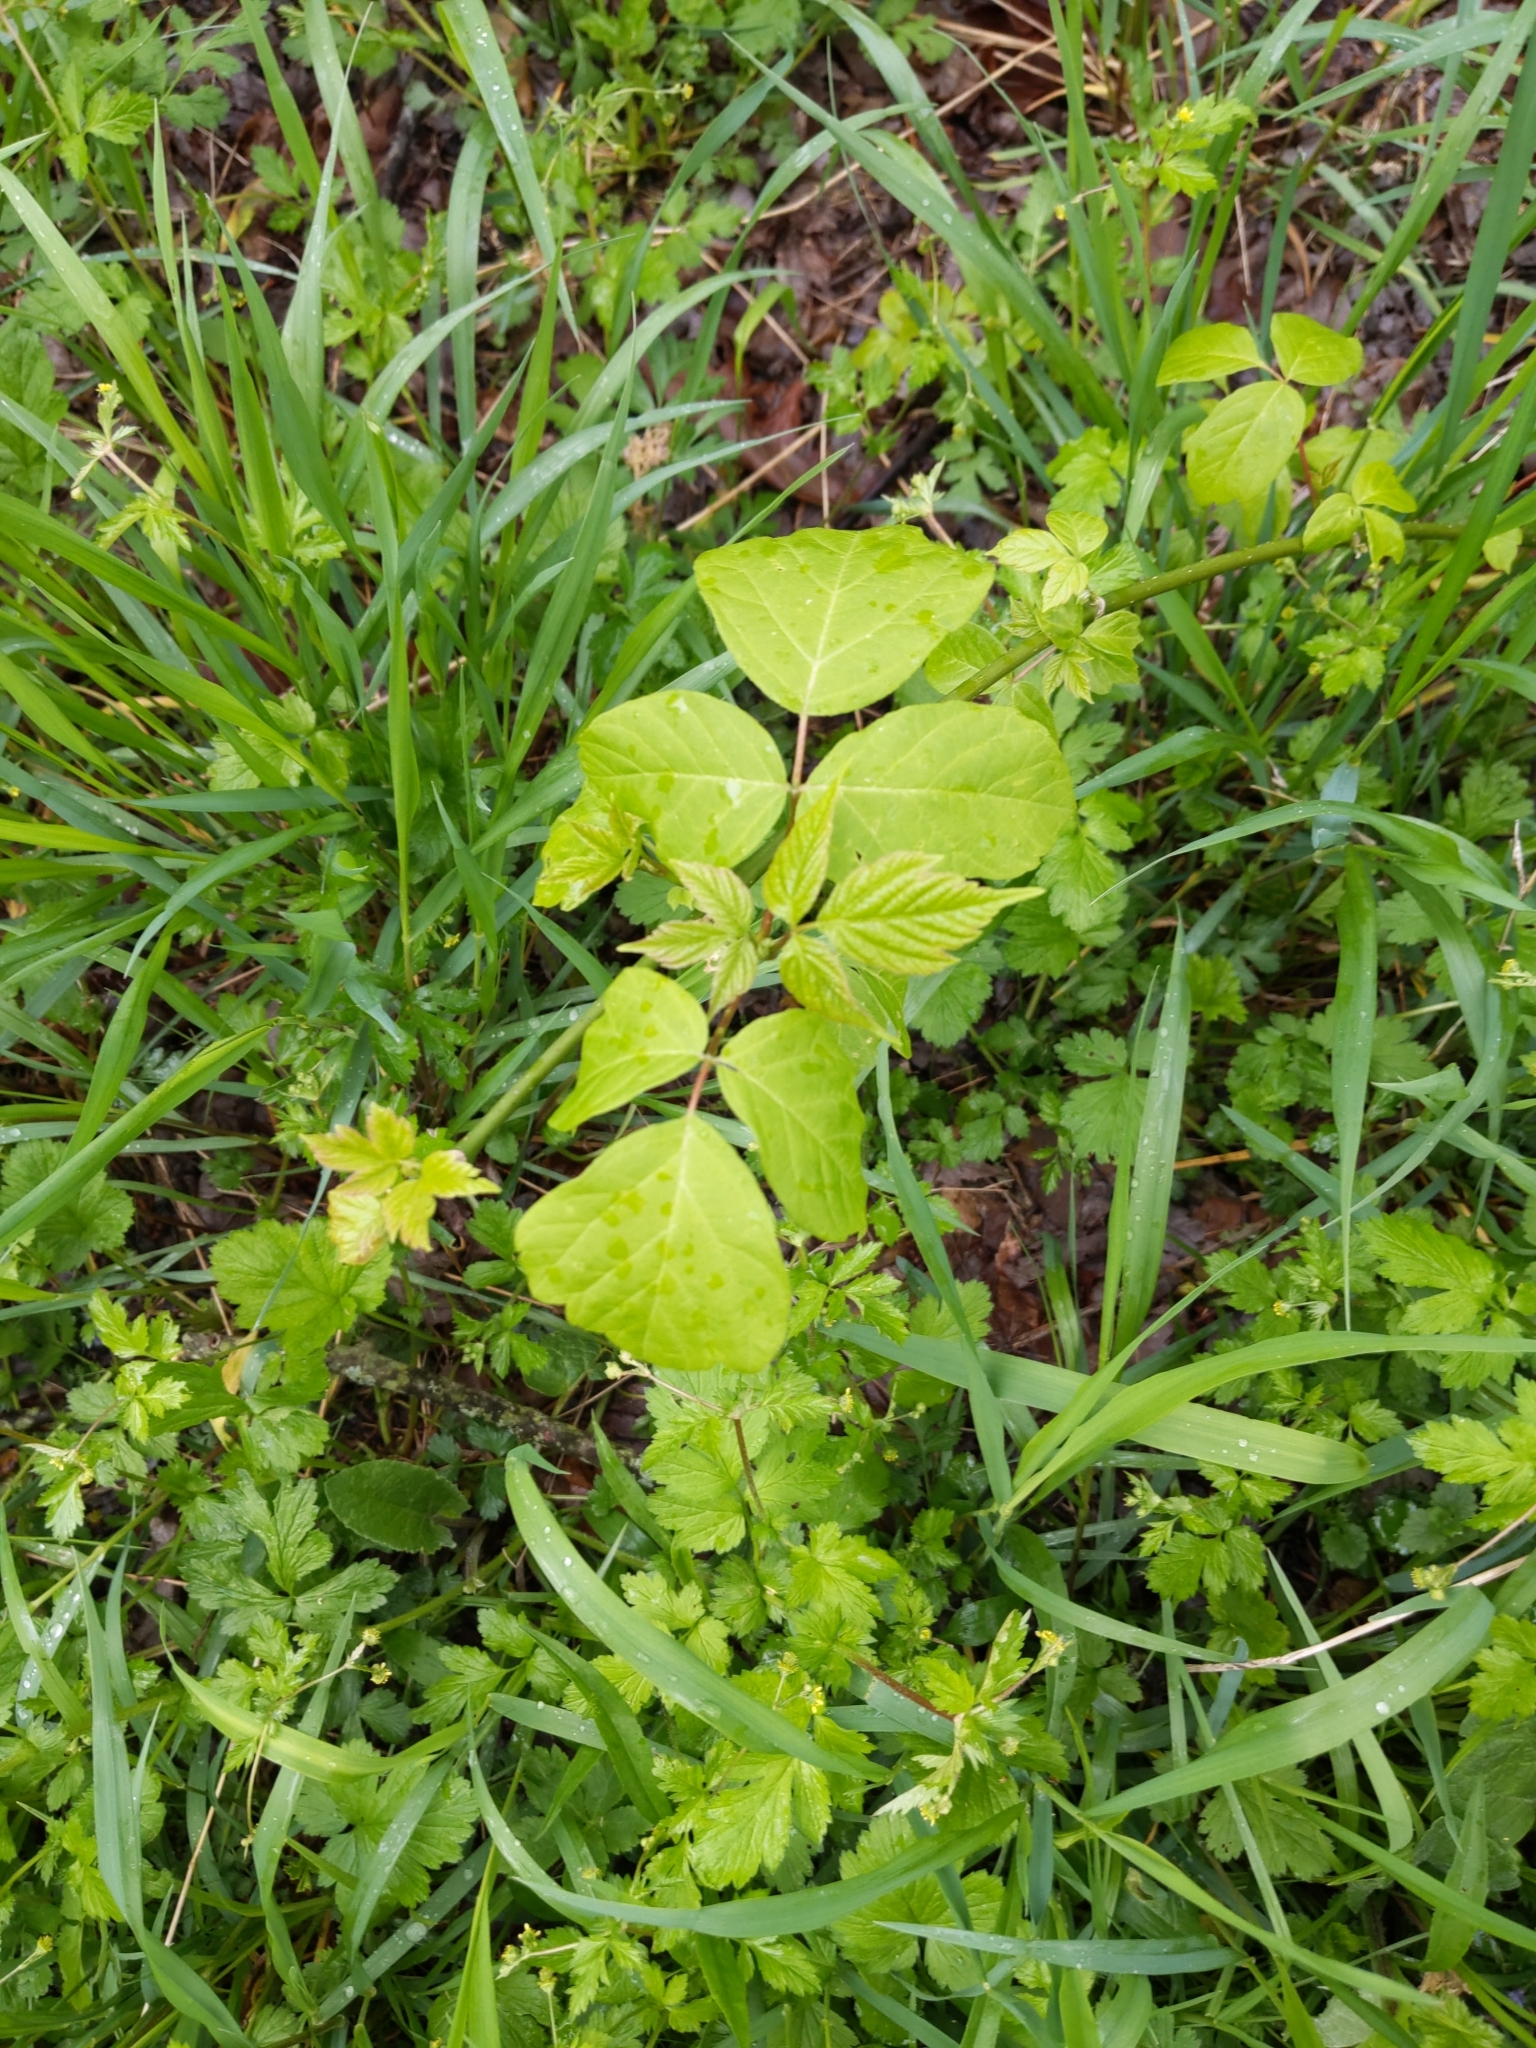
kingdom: Plantae
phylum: Tracheophyta
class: Magnoliopsida
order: Sapindales
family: Sapindaceae
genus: Acer
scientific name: Acer negundo
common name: Ashleaf maple
